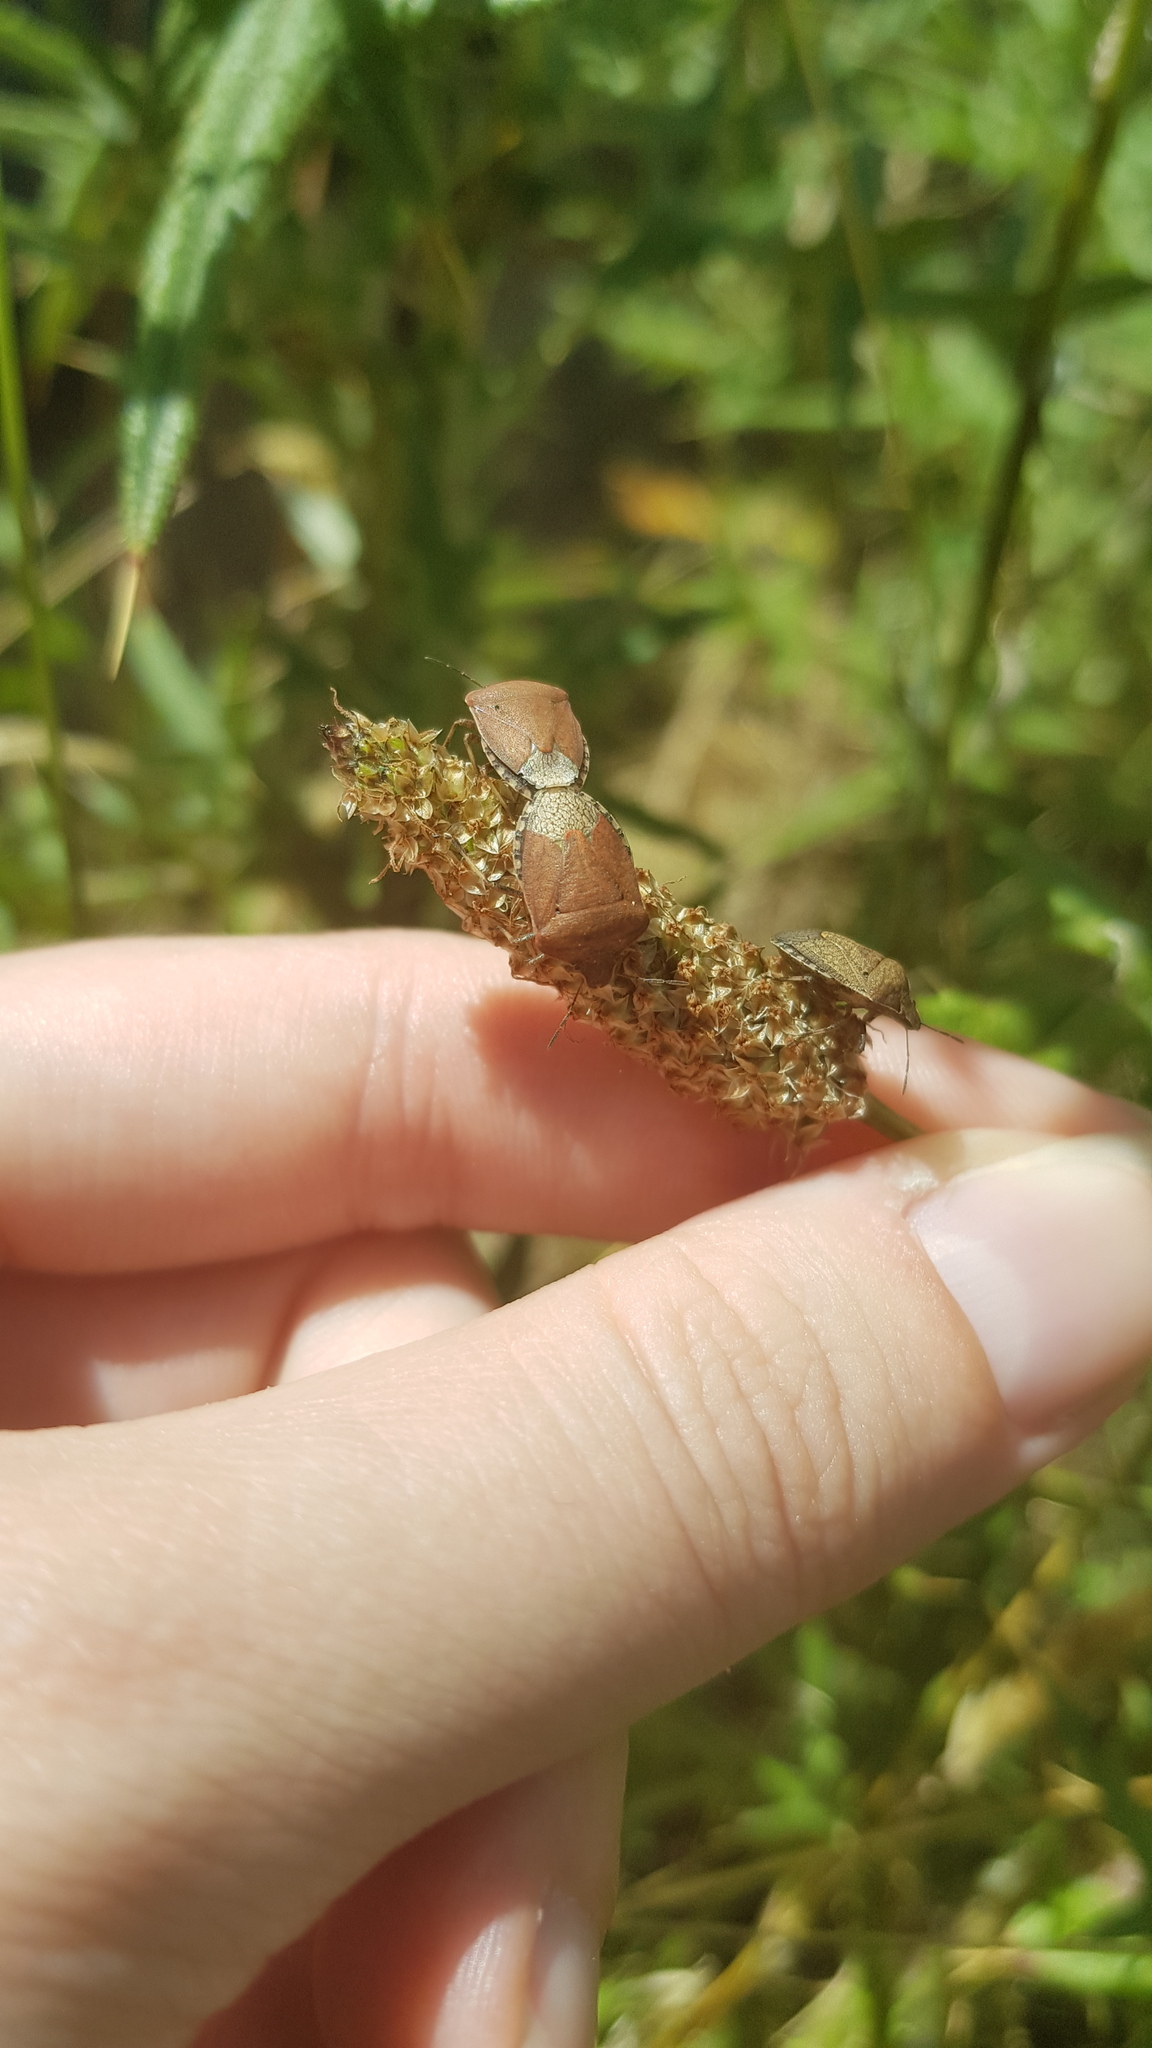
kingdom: Animalia
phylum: Arthropoda
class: Insecta
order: Hemiptera
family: Pentatomidae
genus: Dictyotus
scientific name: Dictyotus caenosus
